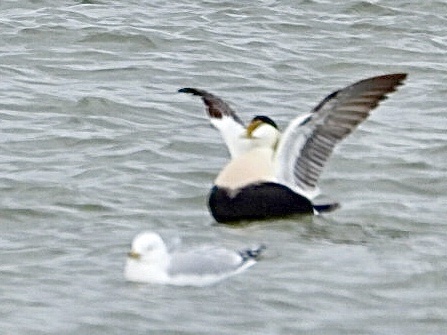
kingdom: Animalia
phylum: Chordata
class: Aves
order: Anseriformes
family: Anatidae
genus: Somateria
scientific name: Somateria mollissima
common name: Common eider
